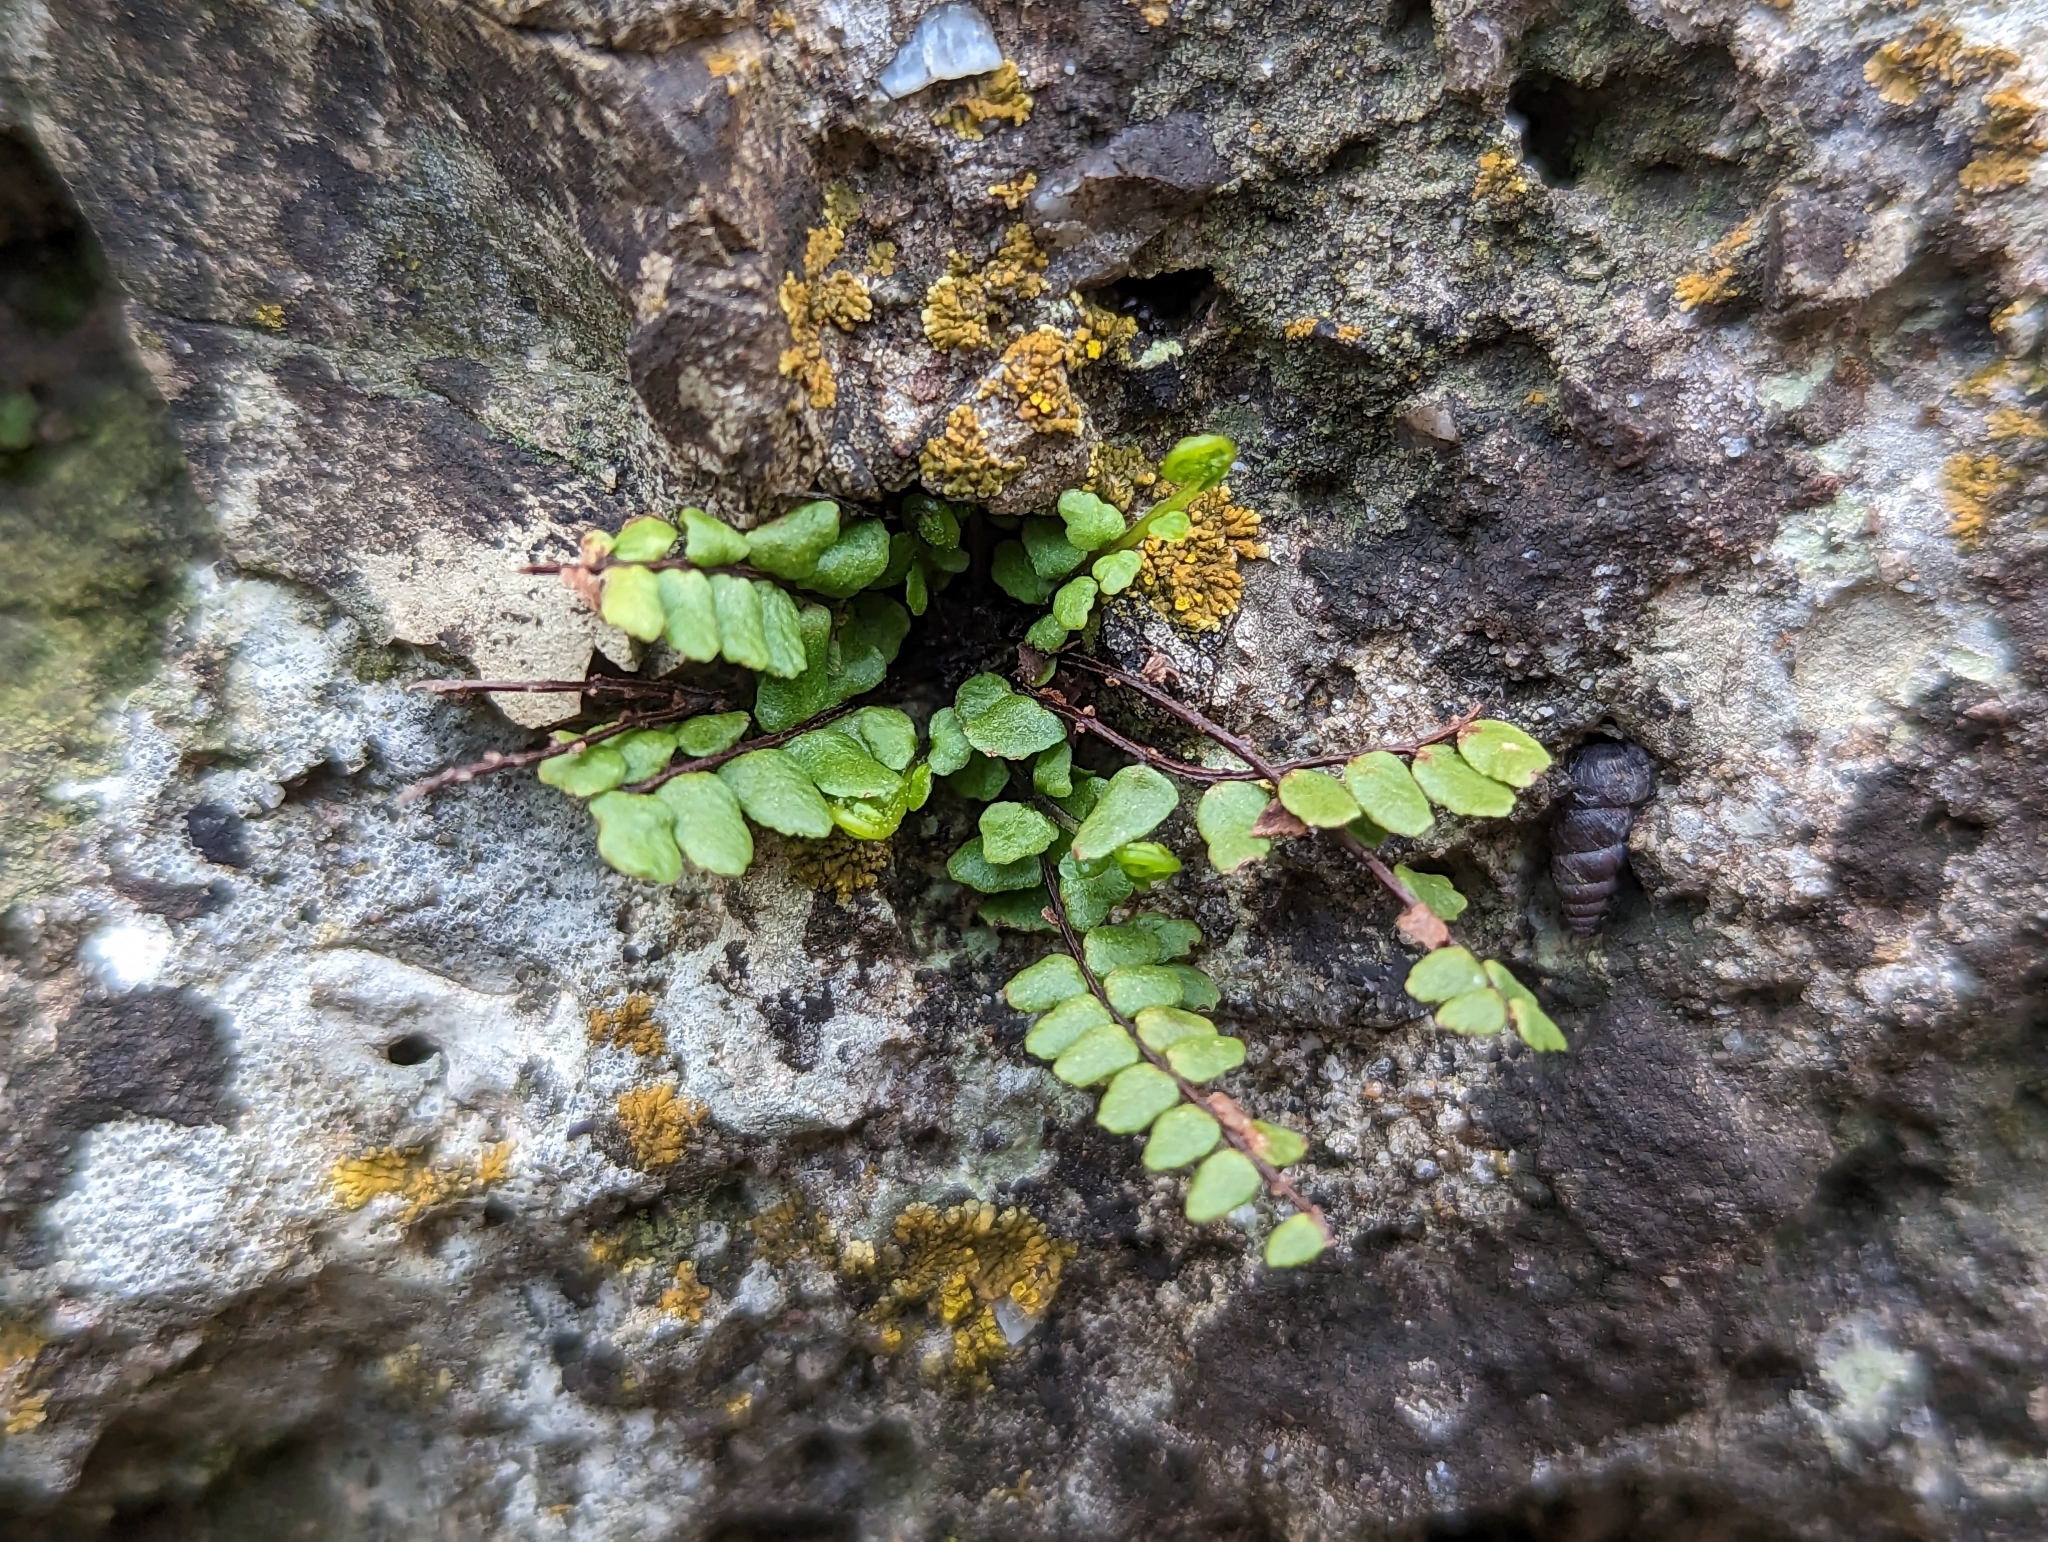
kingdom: Plantae
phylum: Tracheophyta
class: Polypodiopsida
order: Polypodiales
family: Aspleniaceae
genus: Asplenium
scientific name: Asplenium trichomanes
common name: Maidenhair spleenwort
